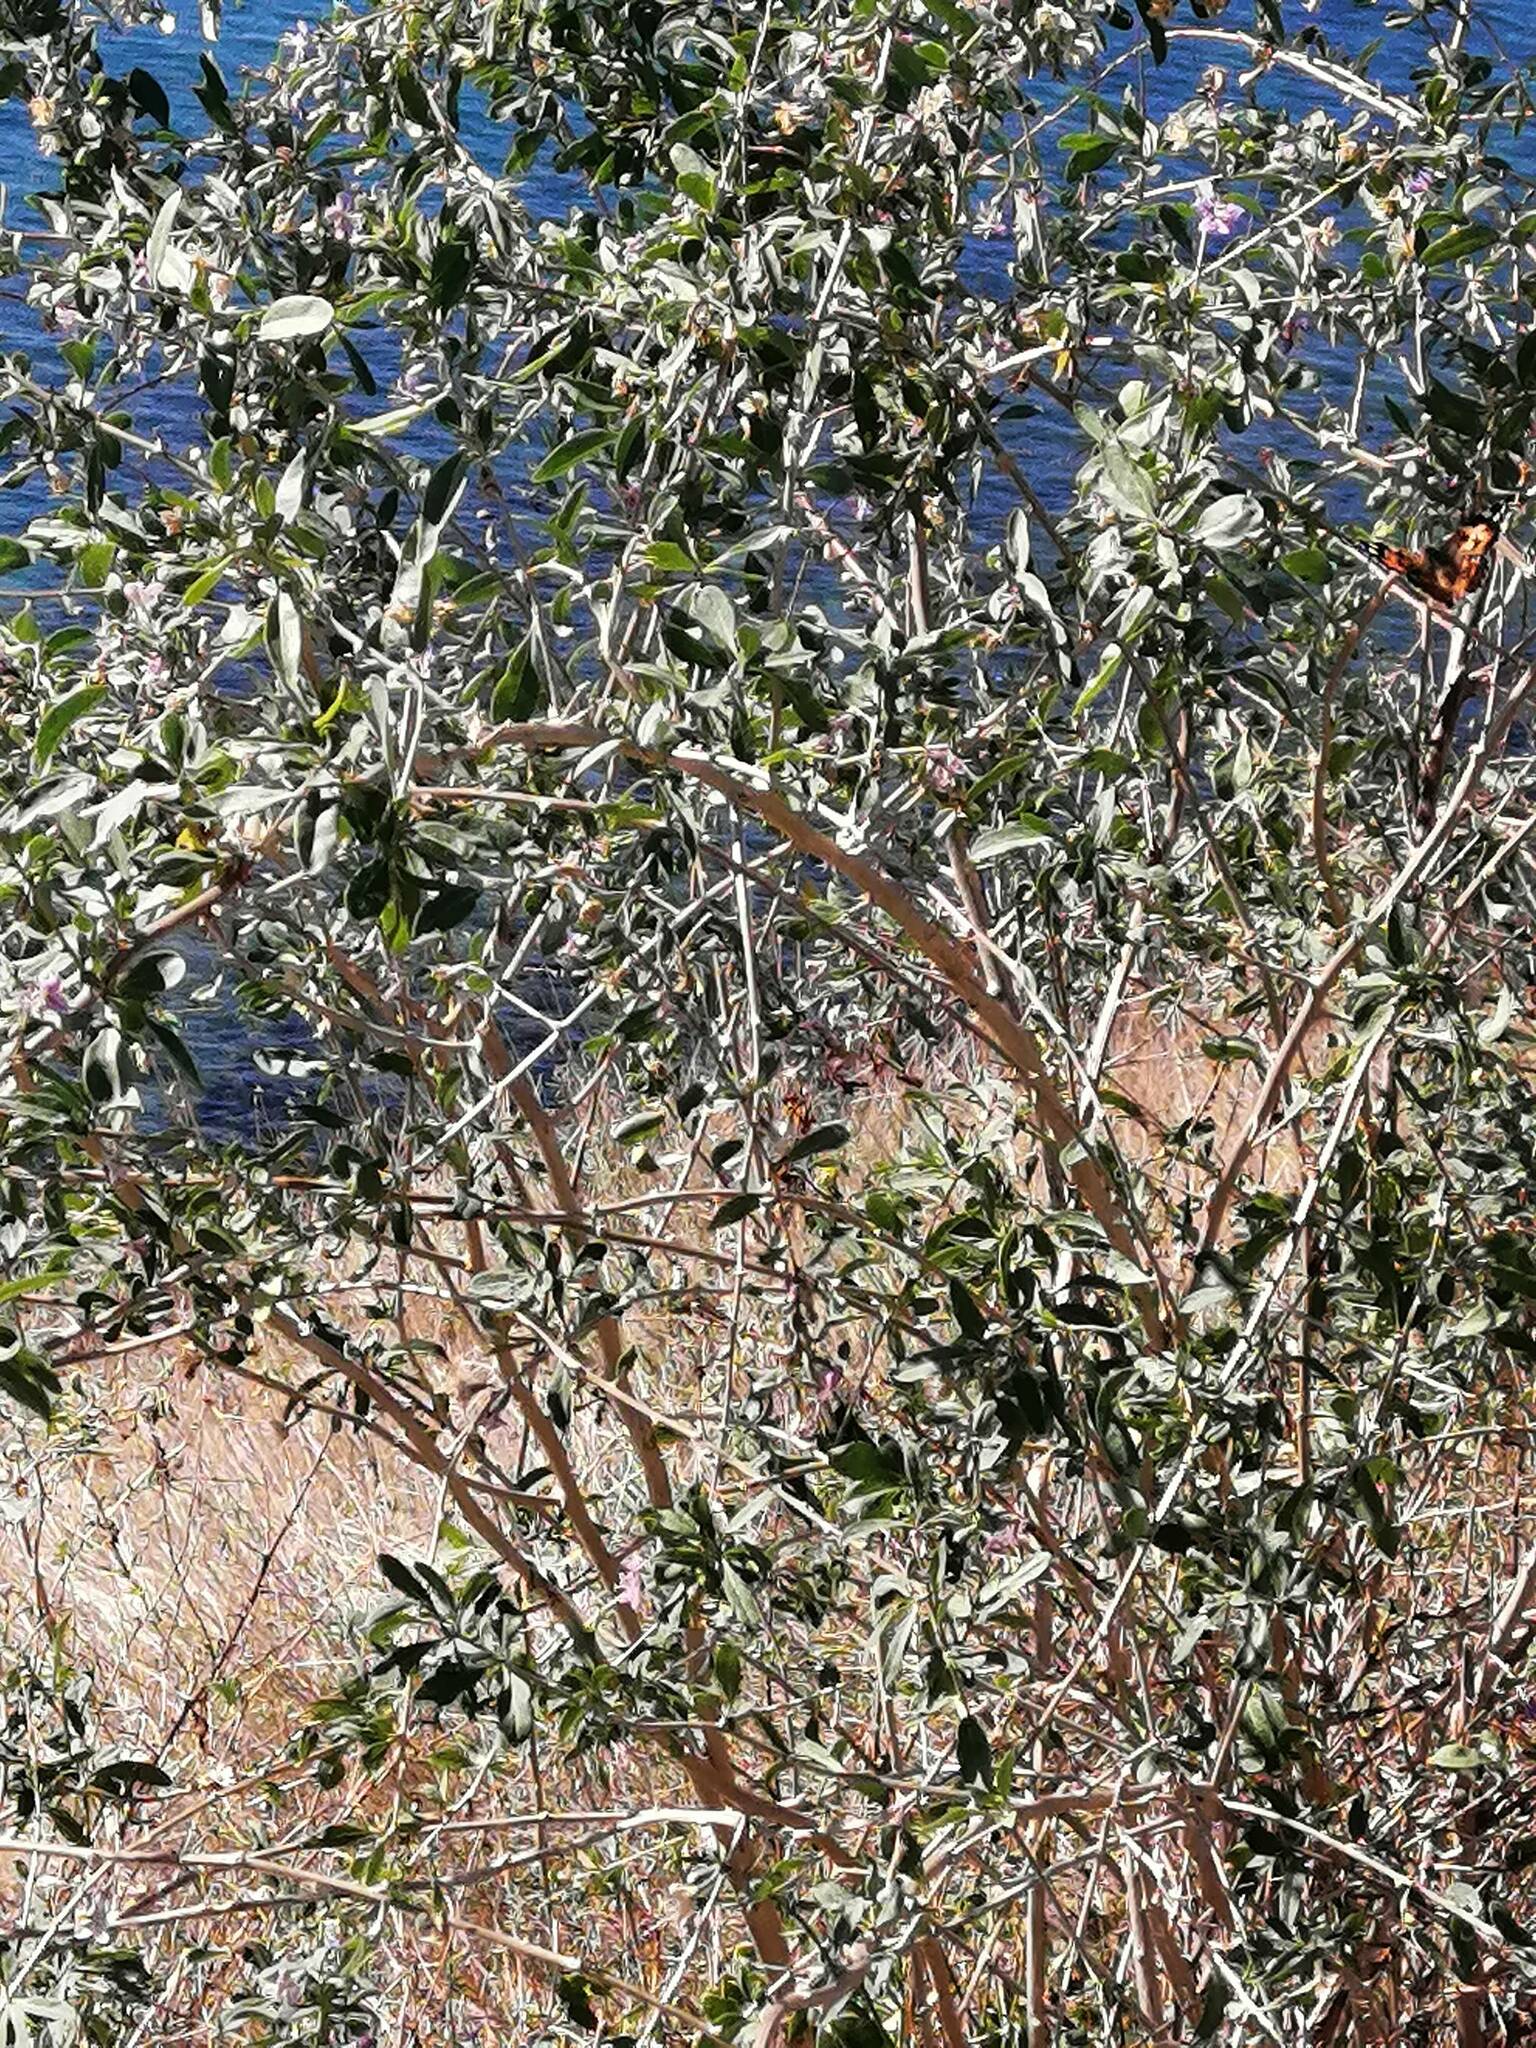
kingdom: Plantae
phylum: Tracheophyta
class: Magnoliopsida
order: Solanales
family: Solanaceae
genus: Lycium
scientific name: Lycium barbarum
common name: Duke of argyll's teaplant
